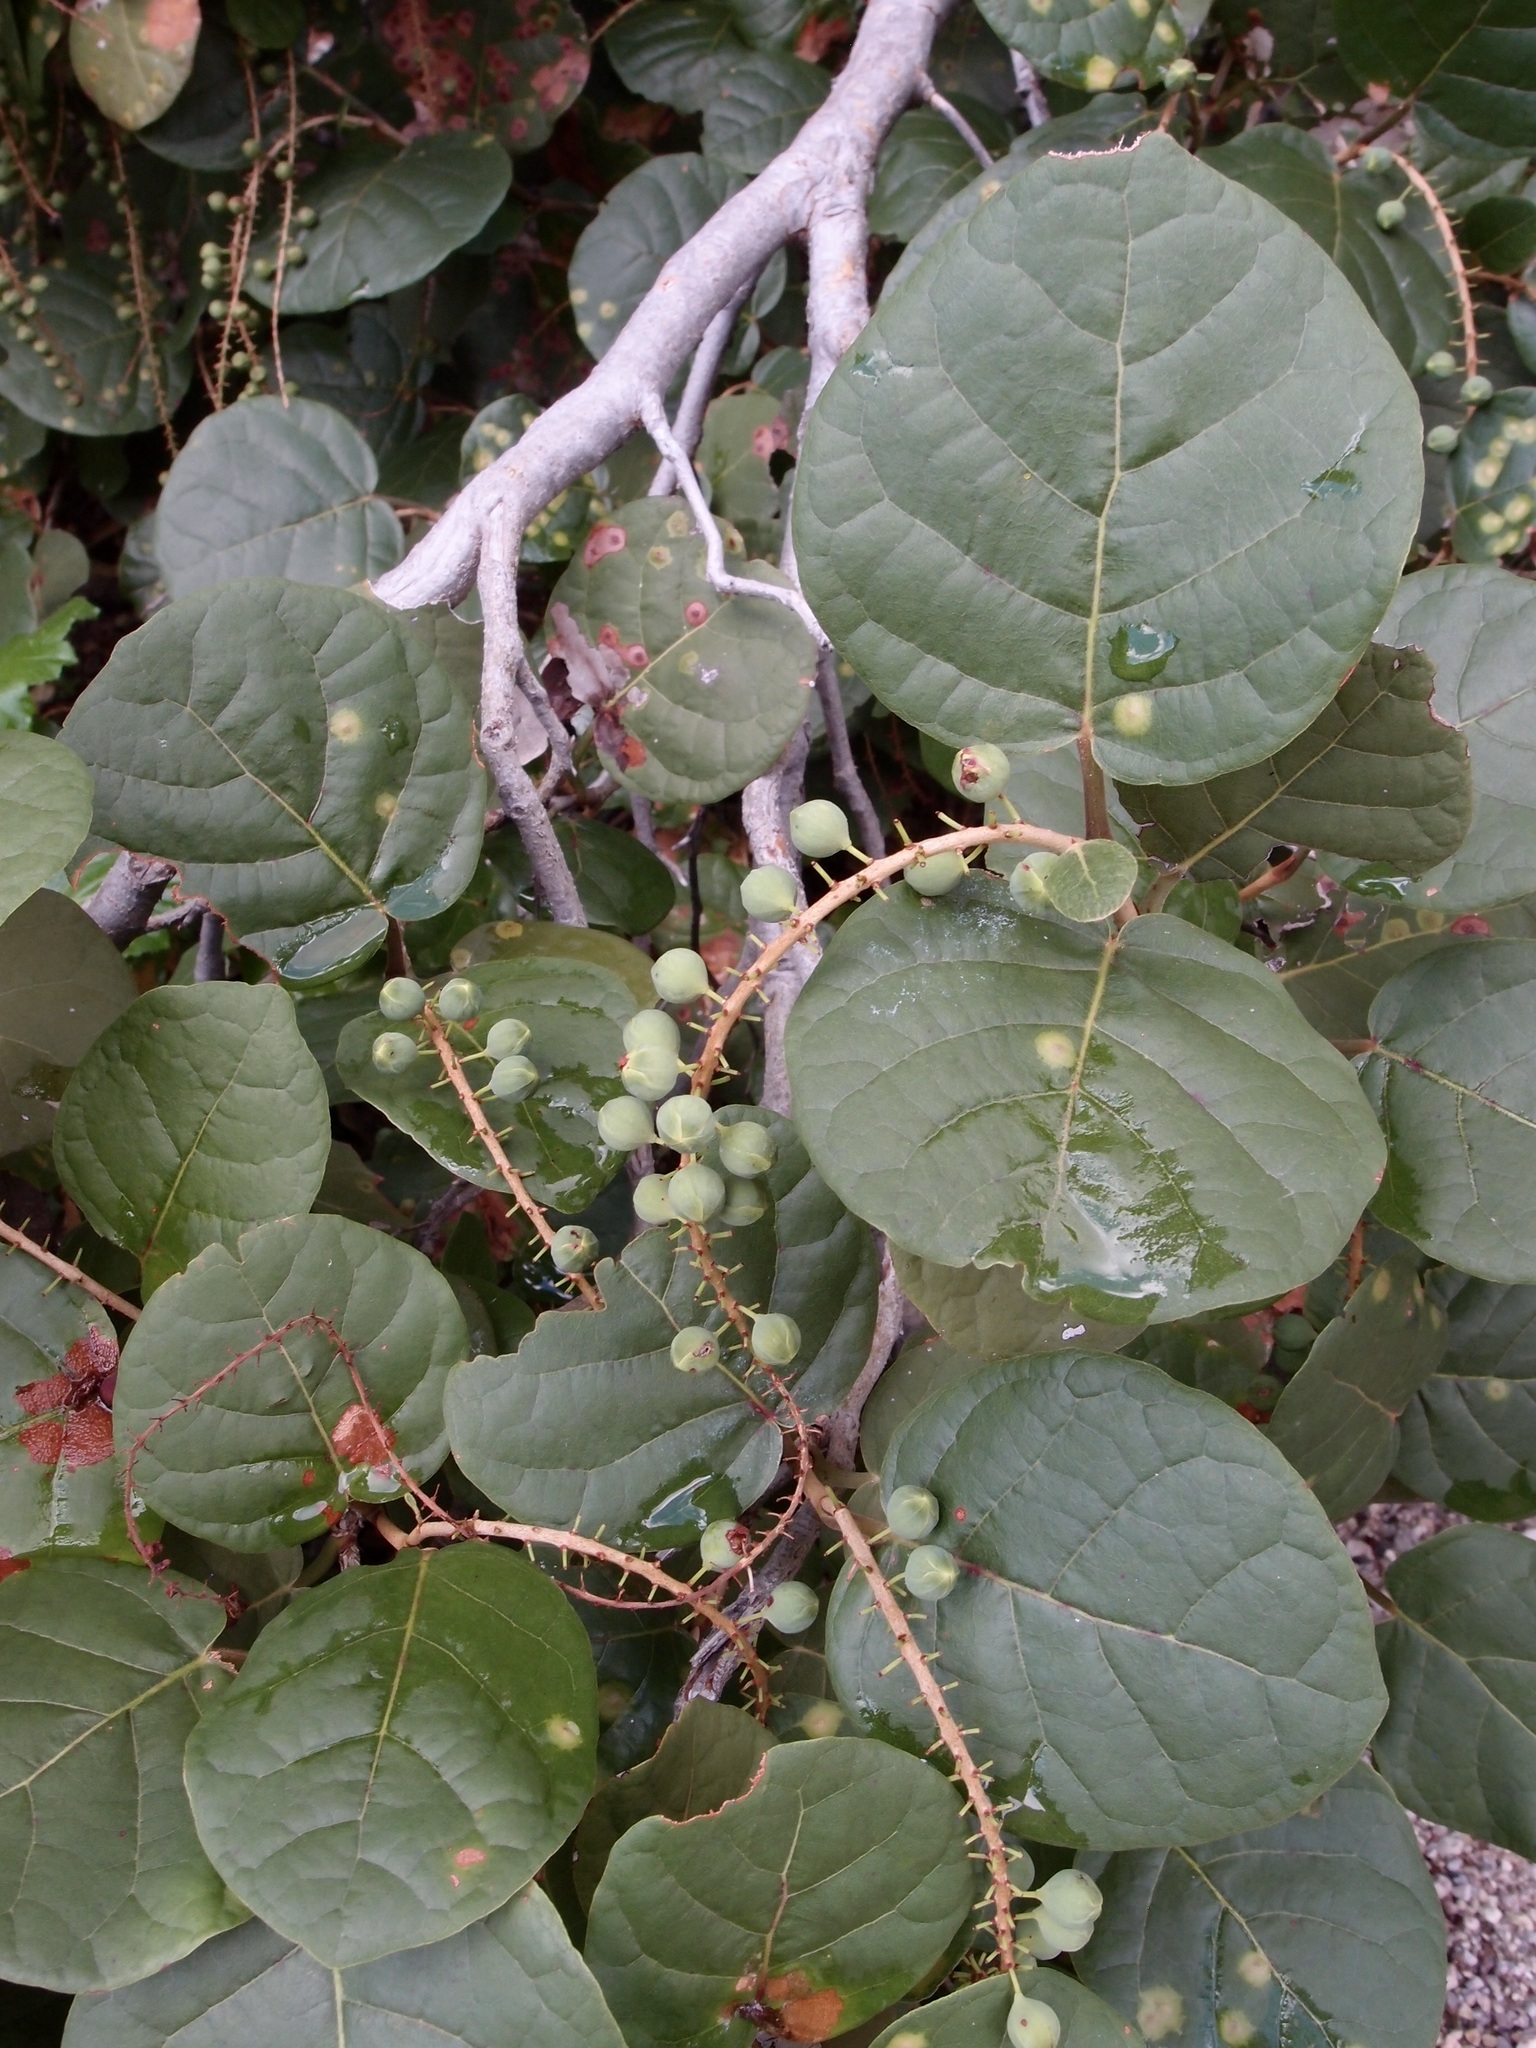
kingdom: Plantae
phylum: Tracheophyta
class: Magnoliopsida
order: Caryophyllales
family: Polygonaceae
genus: Coccoloba
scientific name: Coccoloba goldmanii
